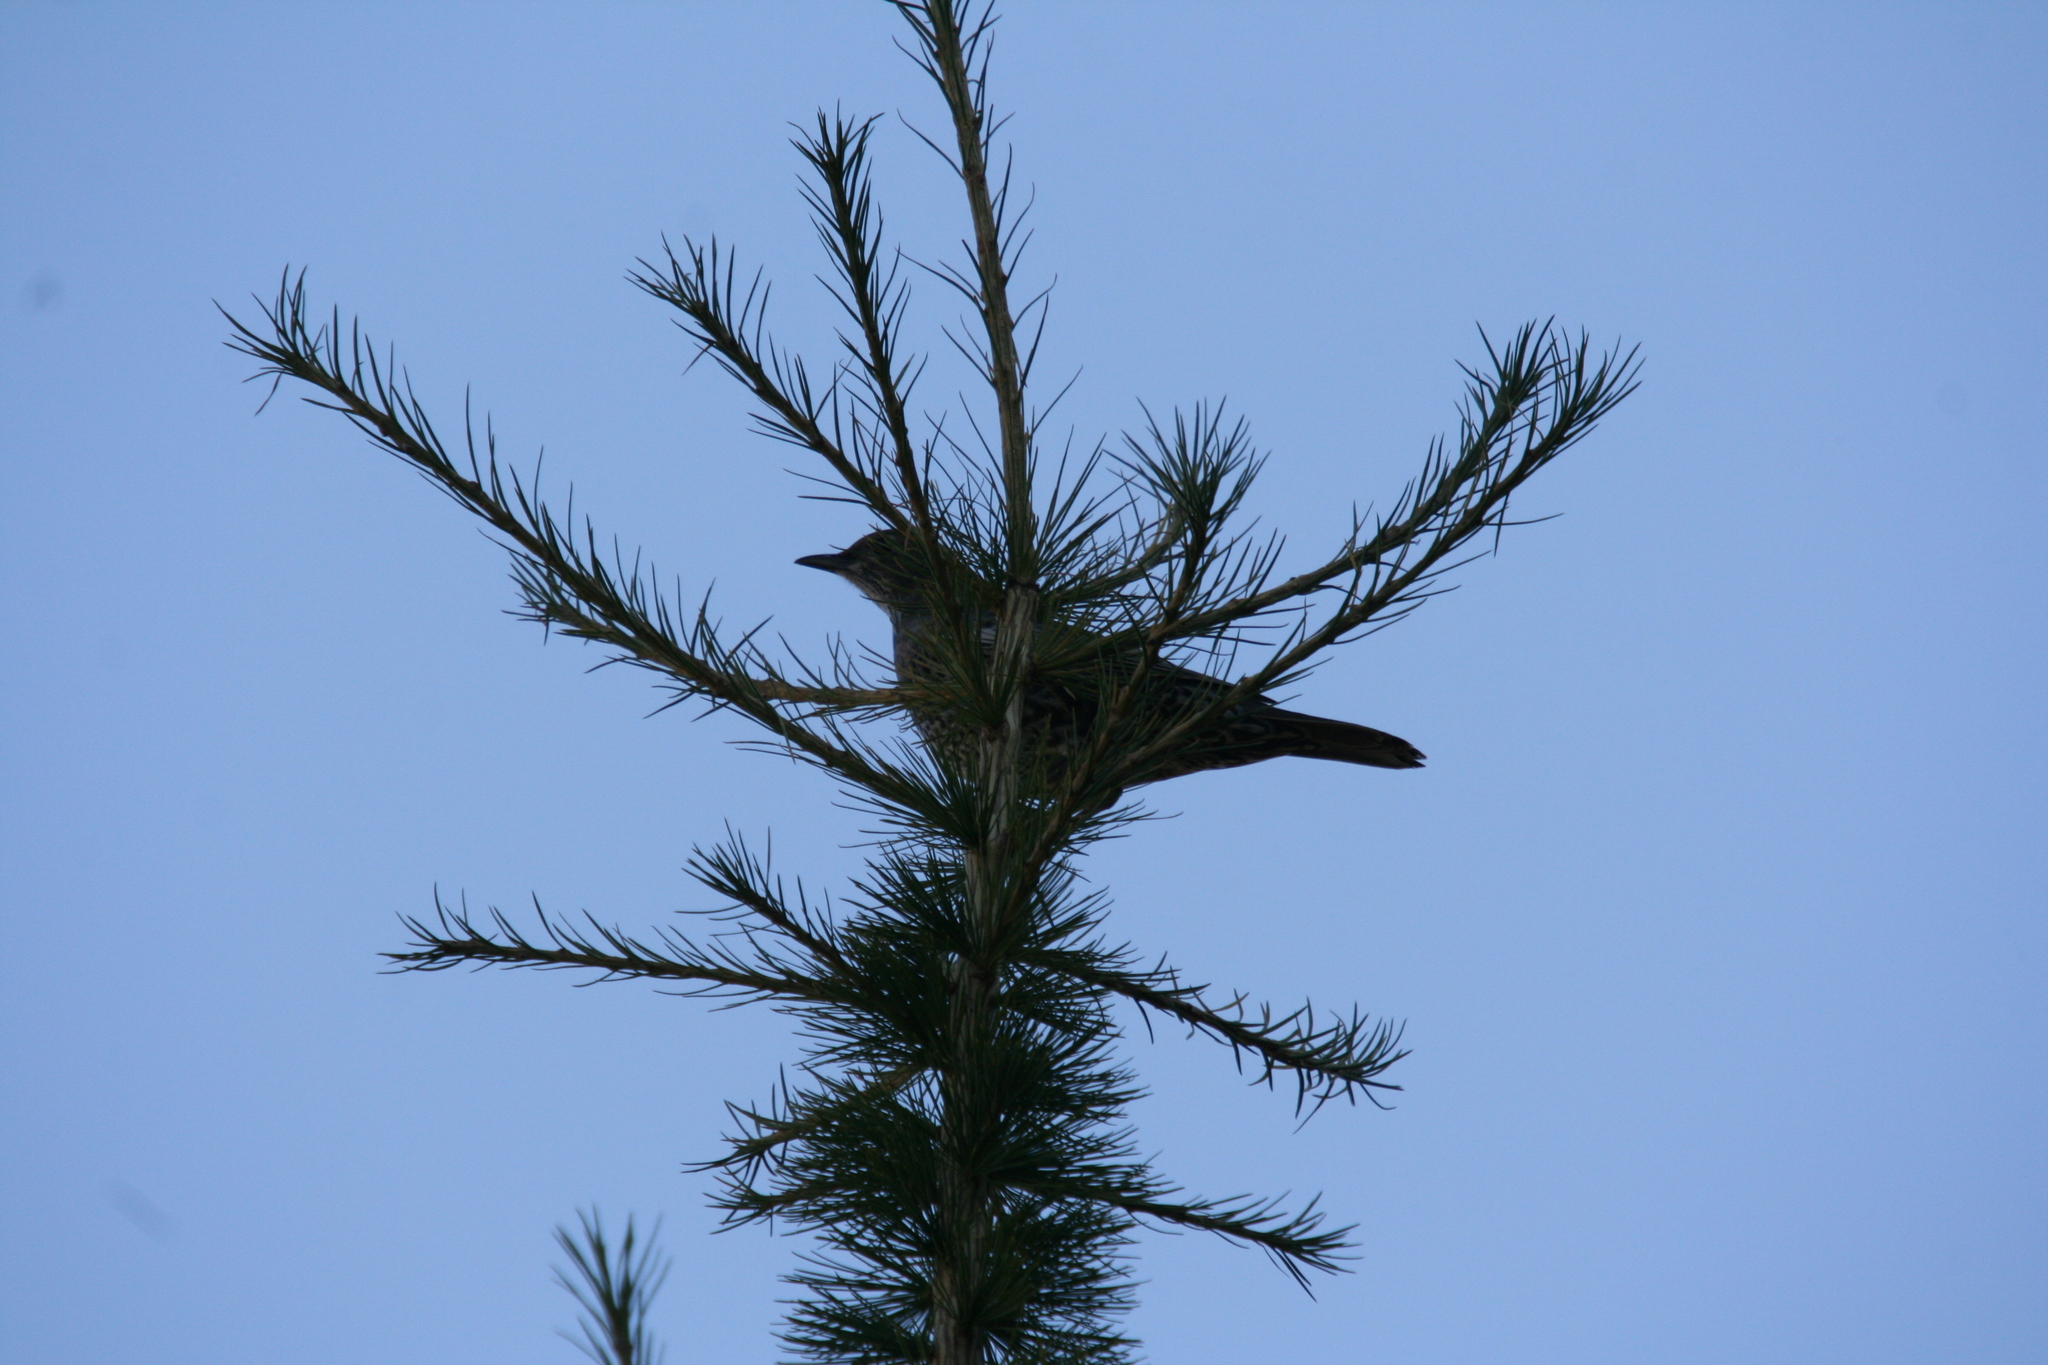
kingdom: Animalia
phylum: Chordata
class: Aves
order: Passeriformes
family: Turdidae
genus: Turdus
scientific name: Turdus torquatus
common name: Ring ouzel
